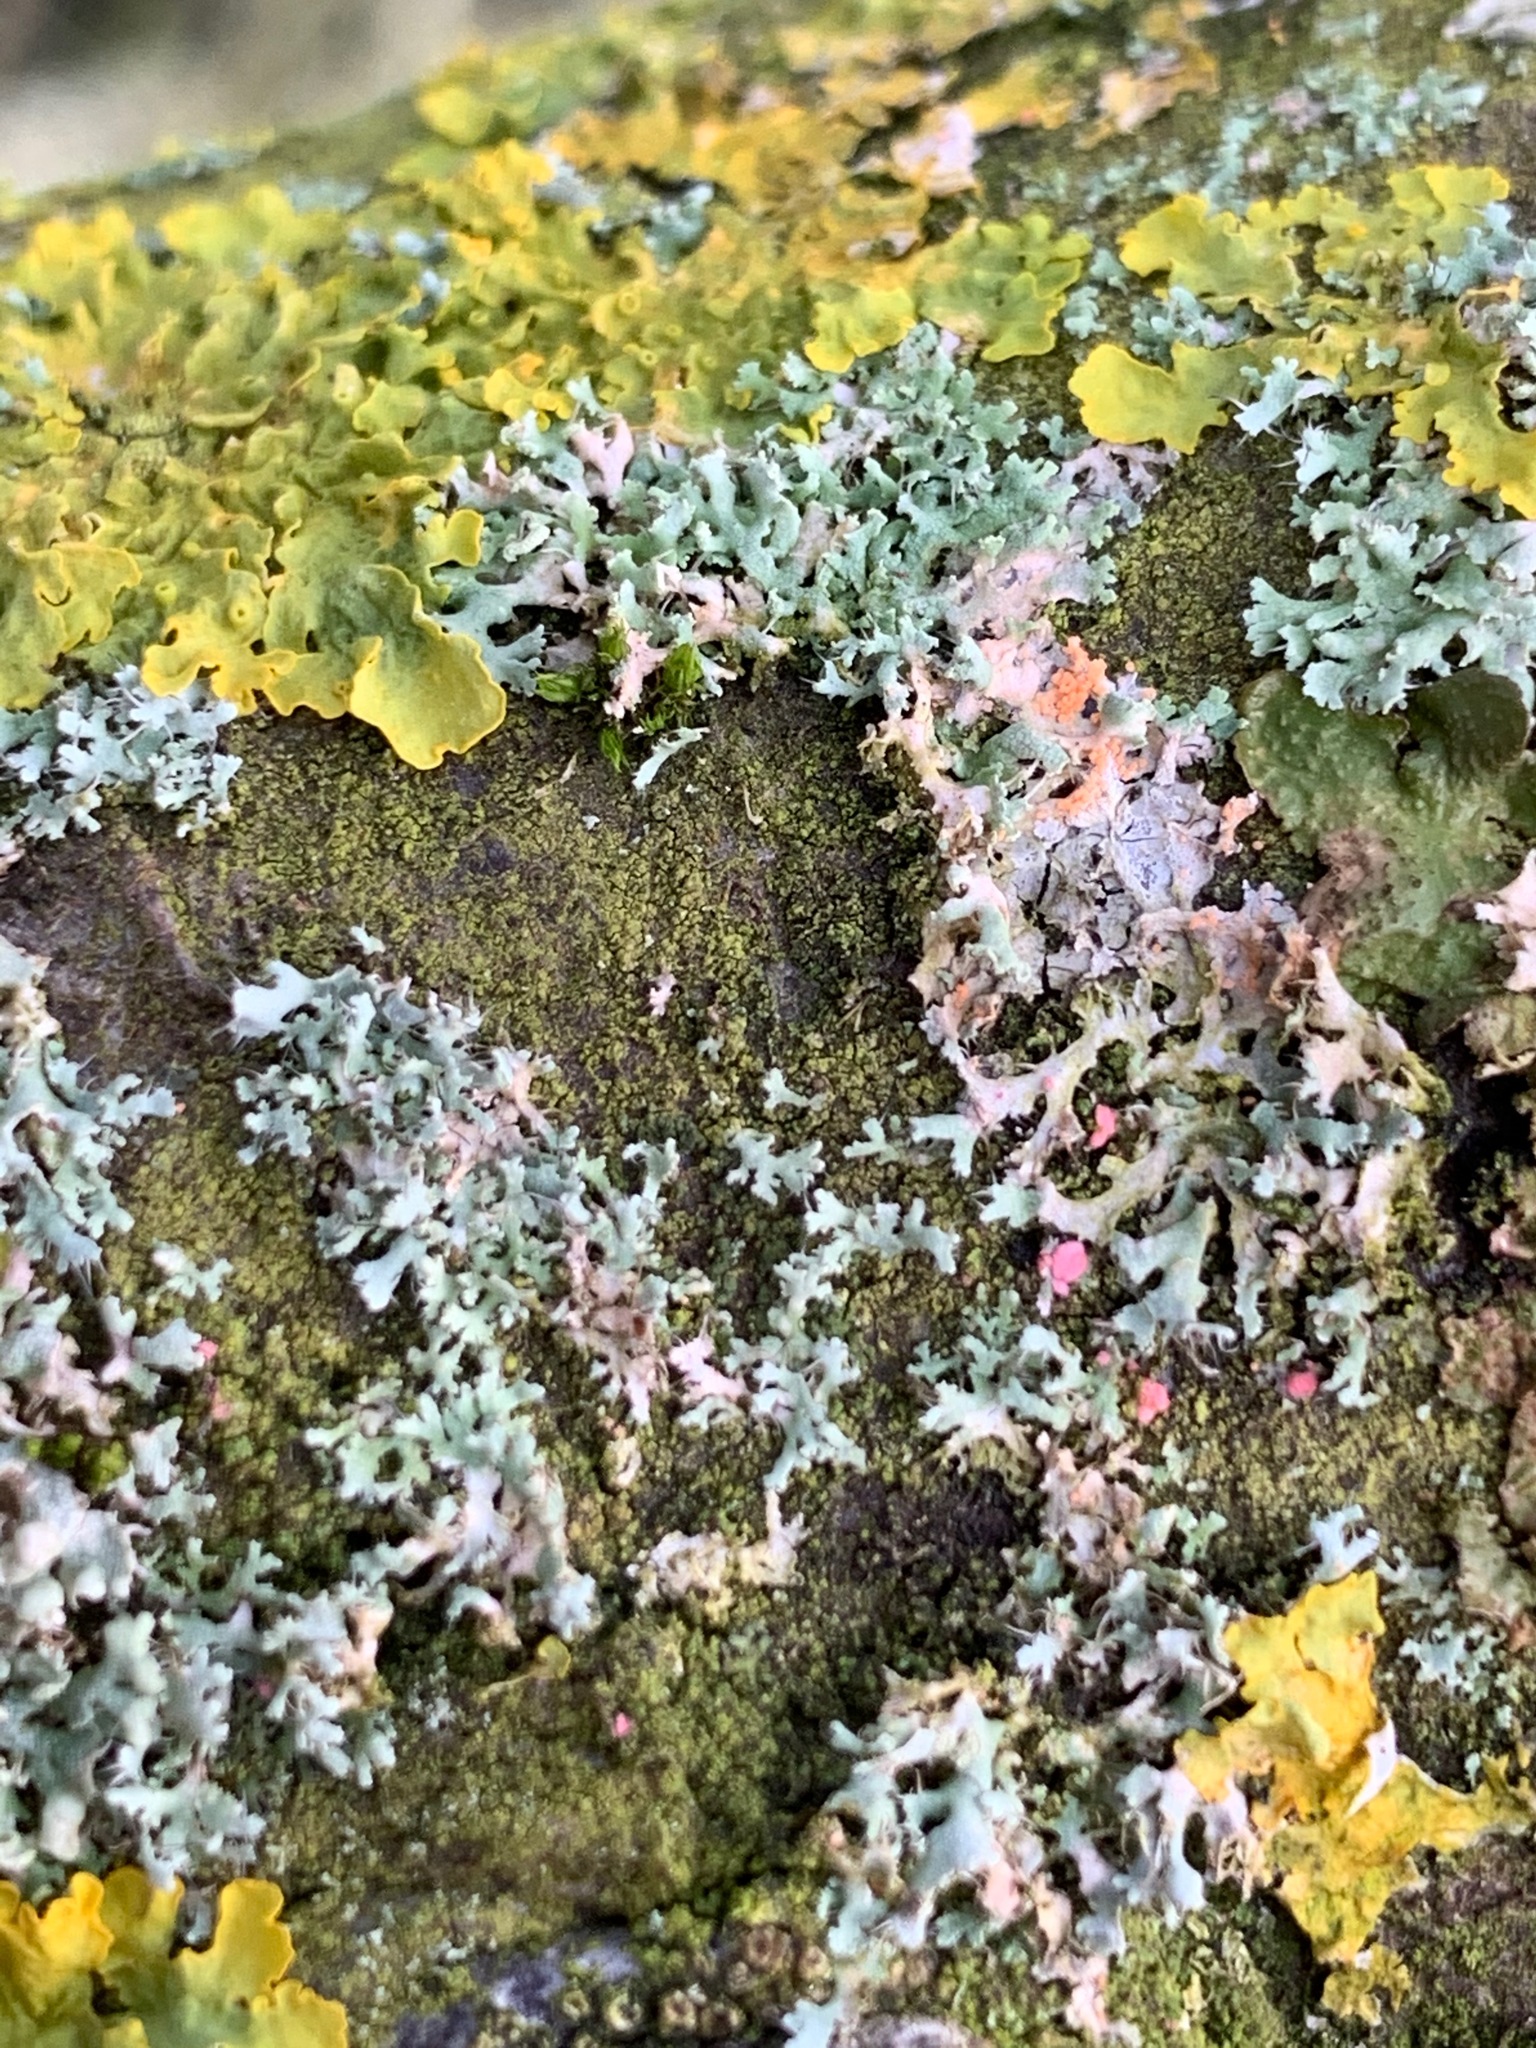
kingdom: Fungi
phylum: Ascomycota
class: Sordariomycetes
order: Hypocreales
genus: Illosporiopsis
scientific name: Illosporiopsis christiansenii
